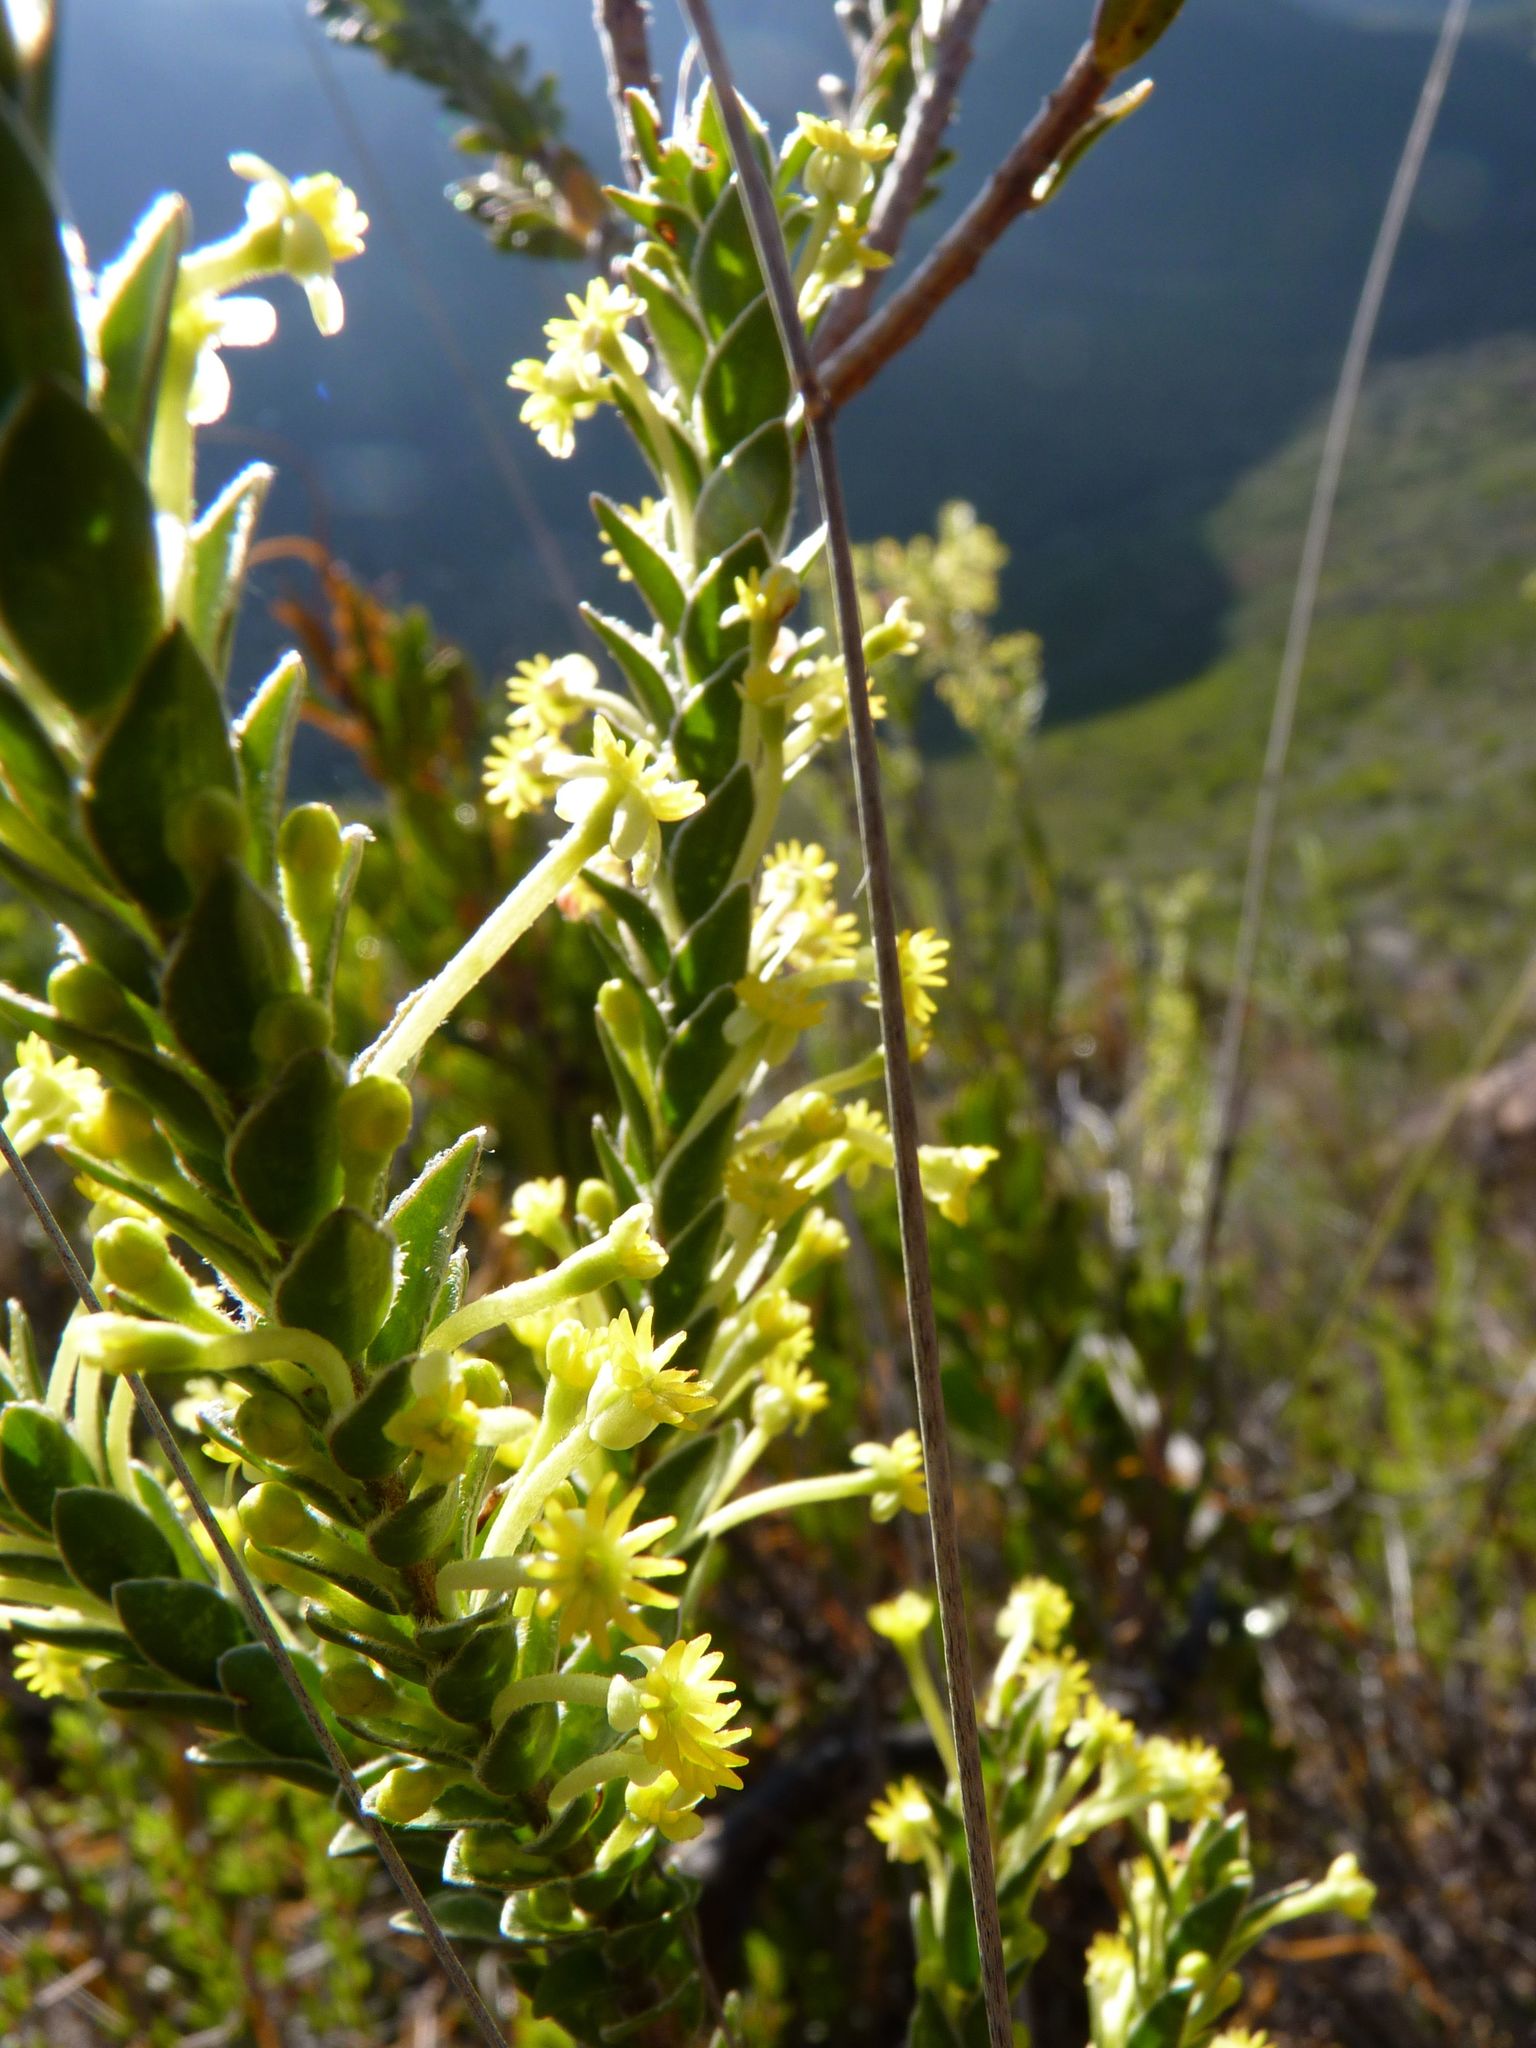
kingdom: Plantae
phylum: Tracheophyta
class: Magnoliopsida
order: Malvales
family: Thymelaeaceae
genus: Struthiola
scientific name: Struthiola argentea
